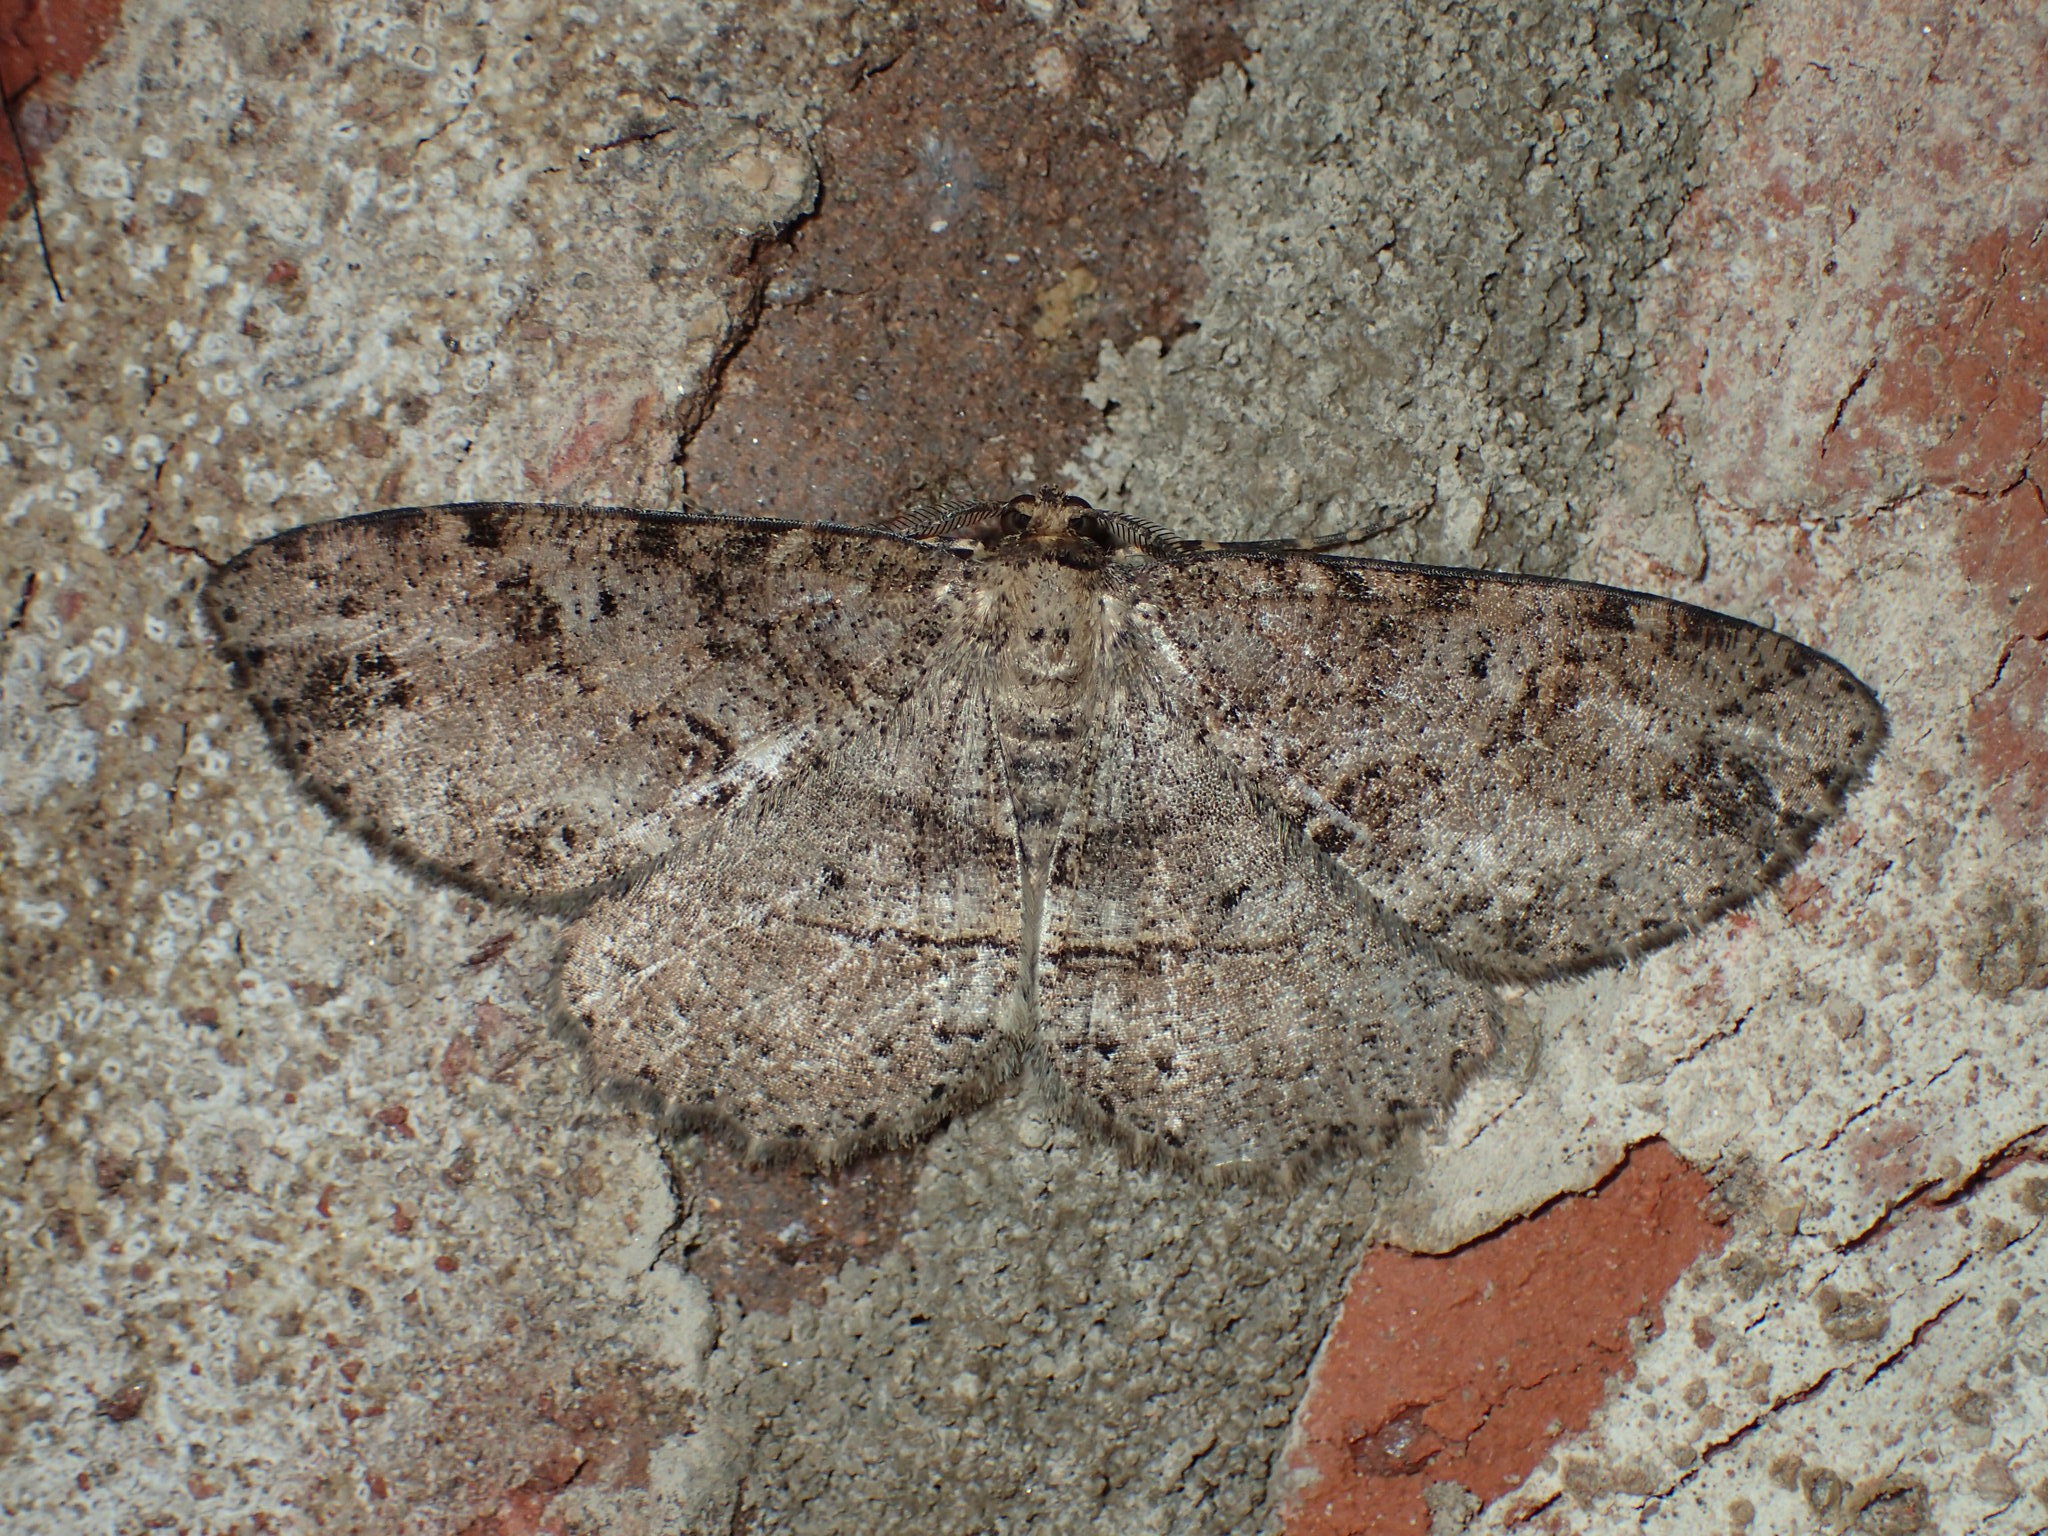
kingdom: Animalia
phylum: Arthropoda
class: Insecta
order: Lepidoptera
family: Geometridae
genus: Melanolophia
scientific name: Melanolophia canadaria
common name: Canadian melanolophia
